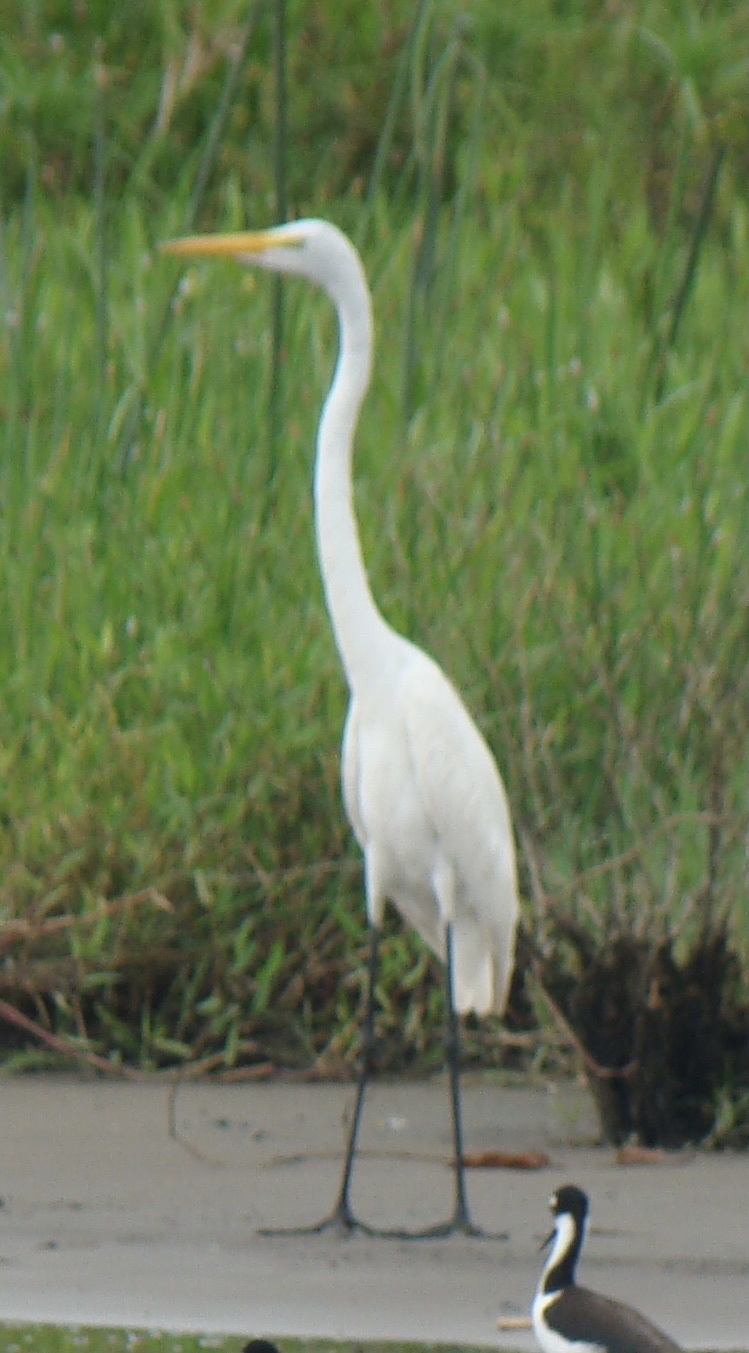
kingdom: Animalia
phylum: Chordata
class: Aves
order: Pelecaniformes
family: Ardeidae
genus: Ardea
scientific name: Ardea alba
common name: Great egret
